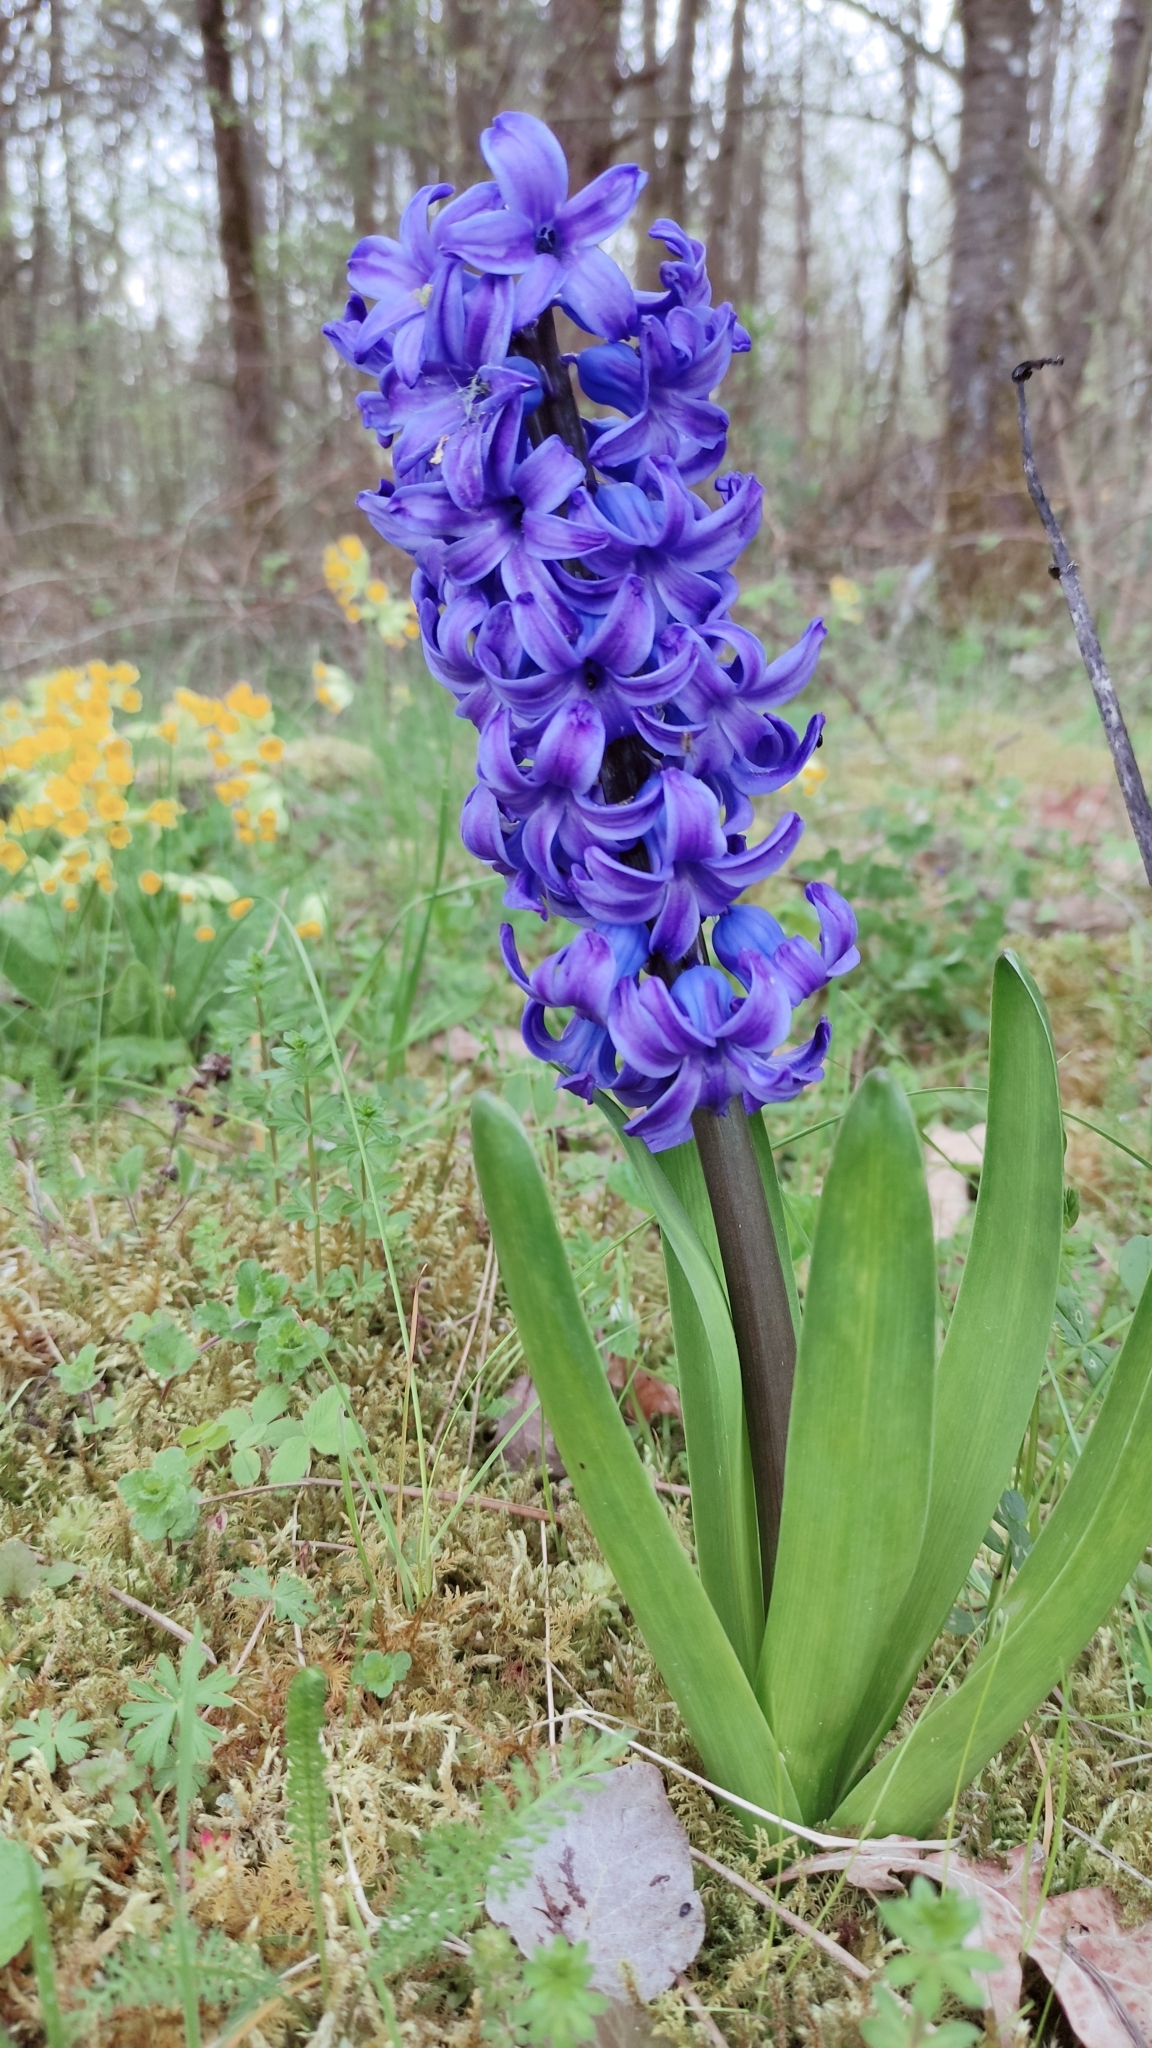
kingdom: Plantae
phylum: Tracheophyta
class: Liliopsida
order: Asparagales
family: Asparagaceae
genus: Hyacinthus
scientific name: Hyacinthus orientalis
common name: Hyacinth
